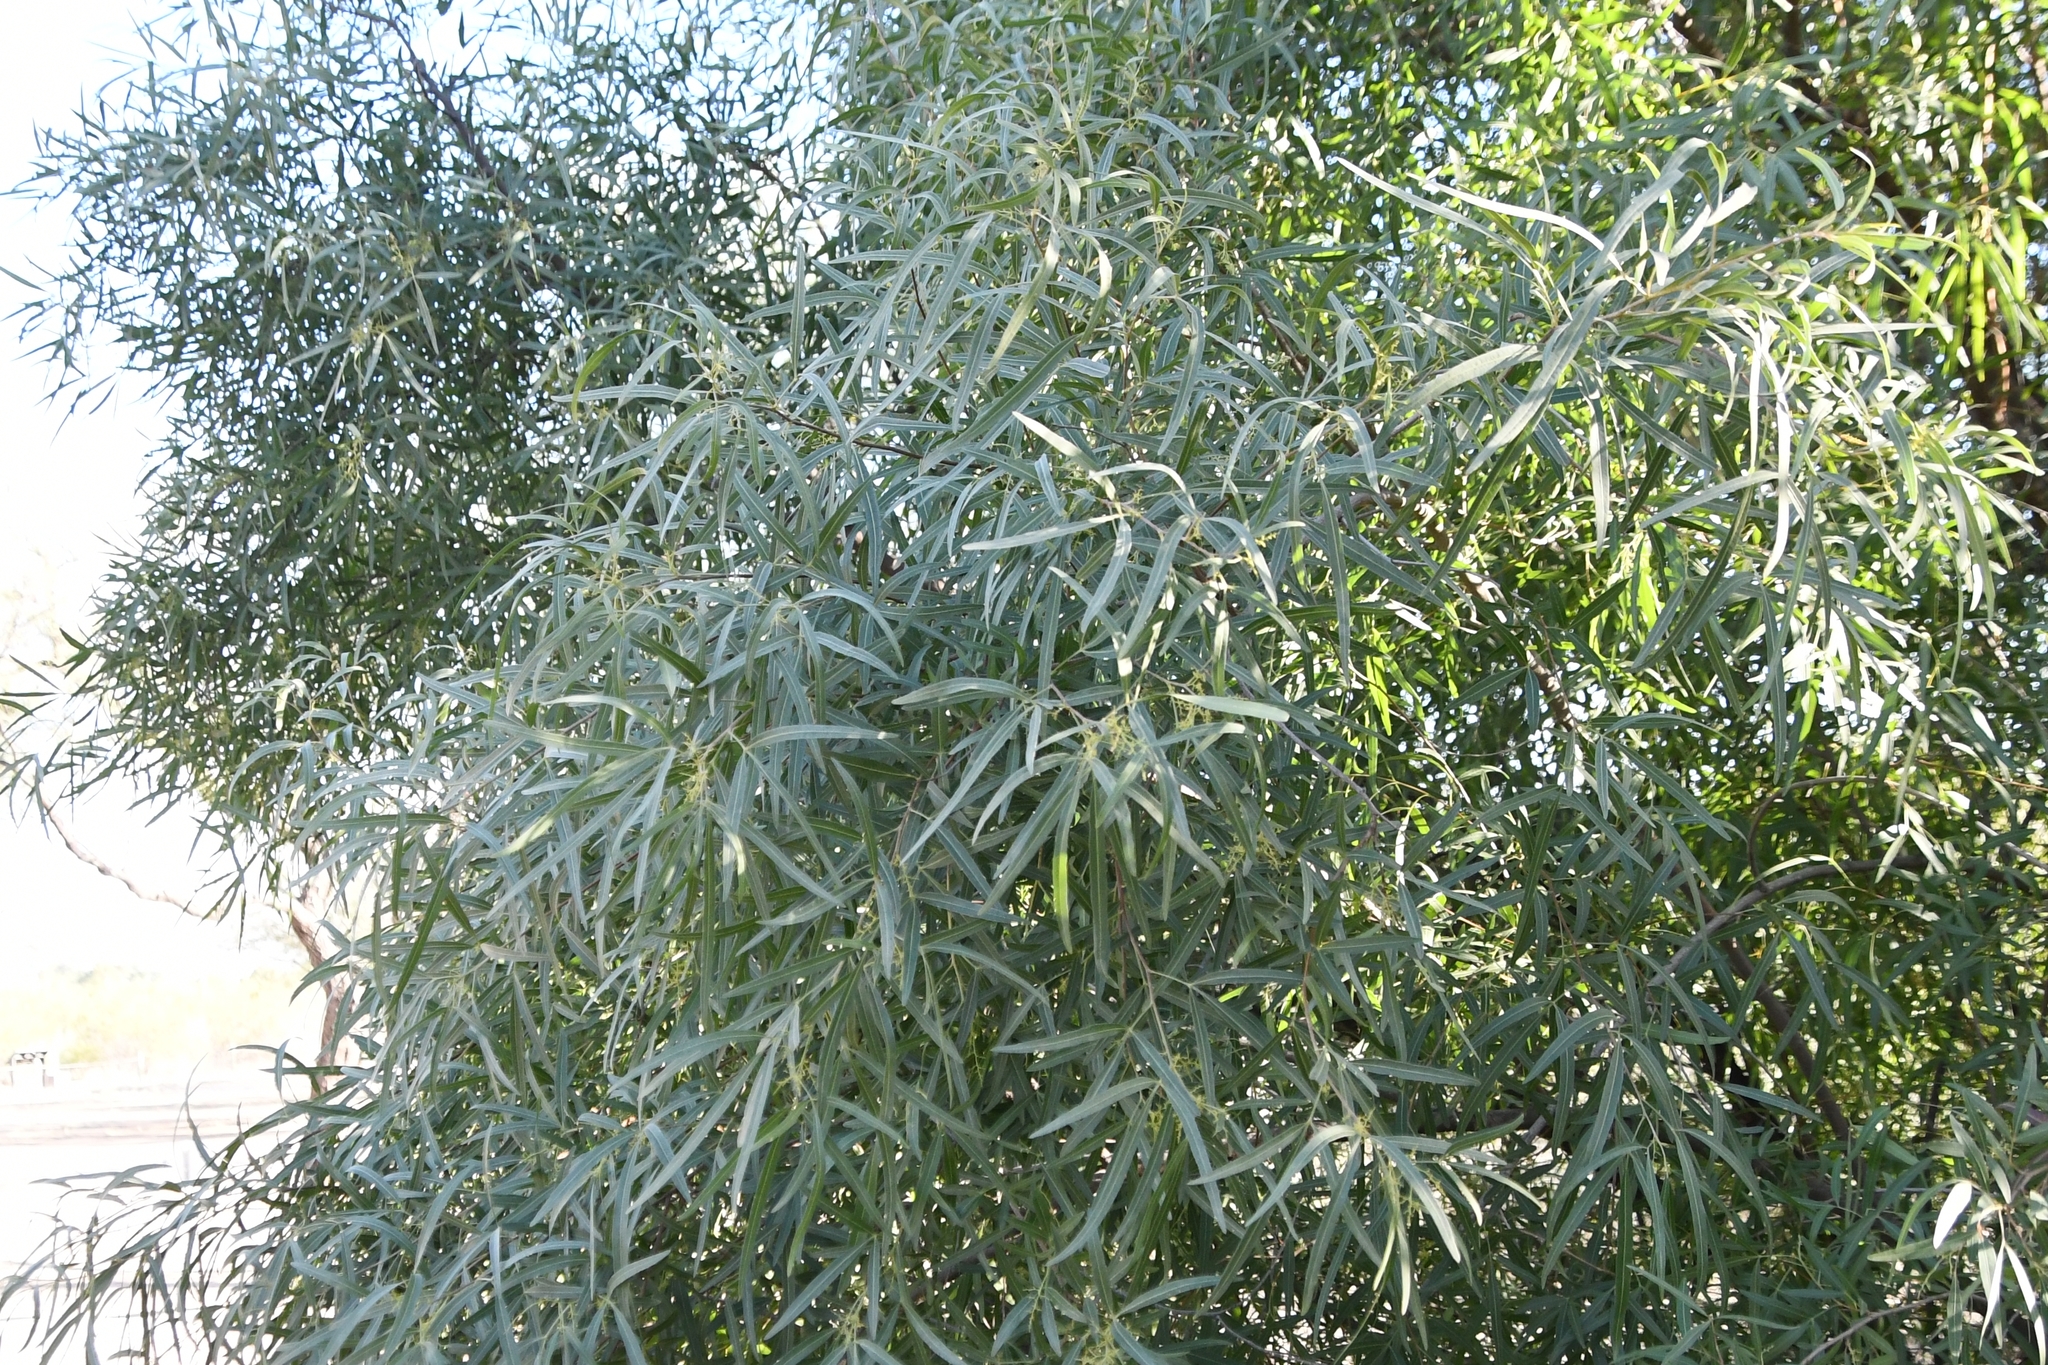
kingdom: Plantae
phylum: Tracheophyta
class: Magnoliopsida
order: Sapindales
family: Anacardiaceae
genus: Searsia
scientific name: Searsia lancea
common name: Cashew
